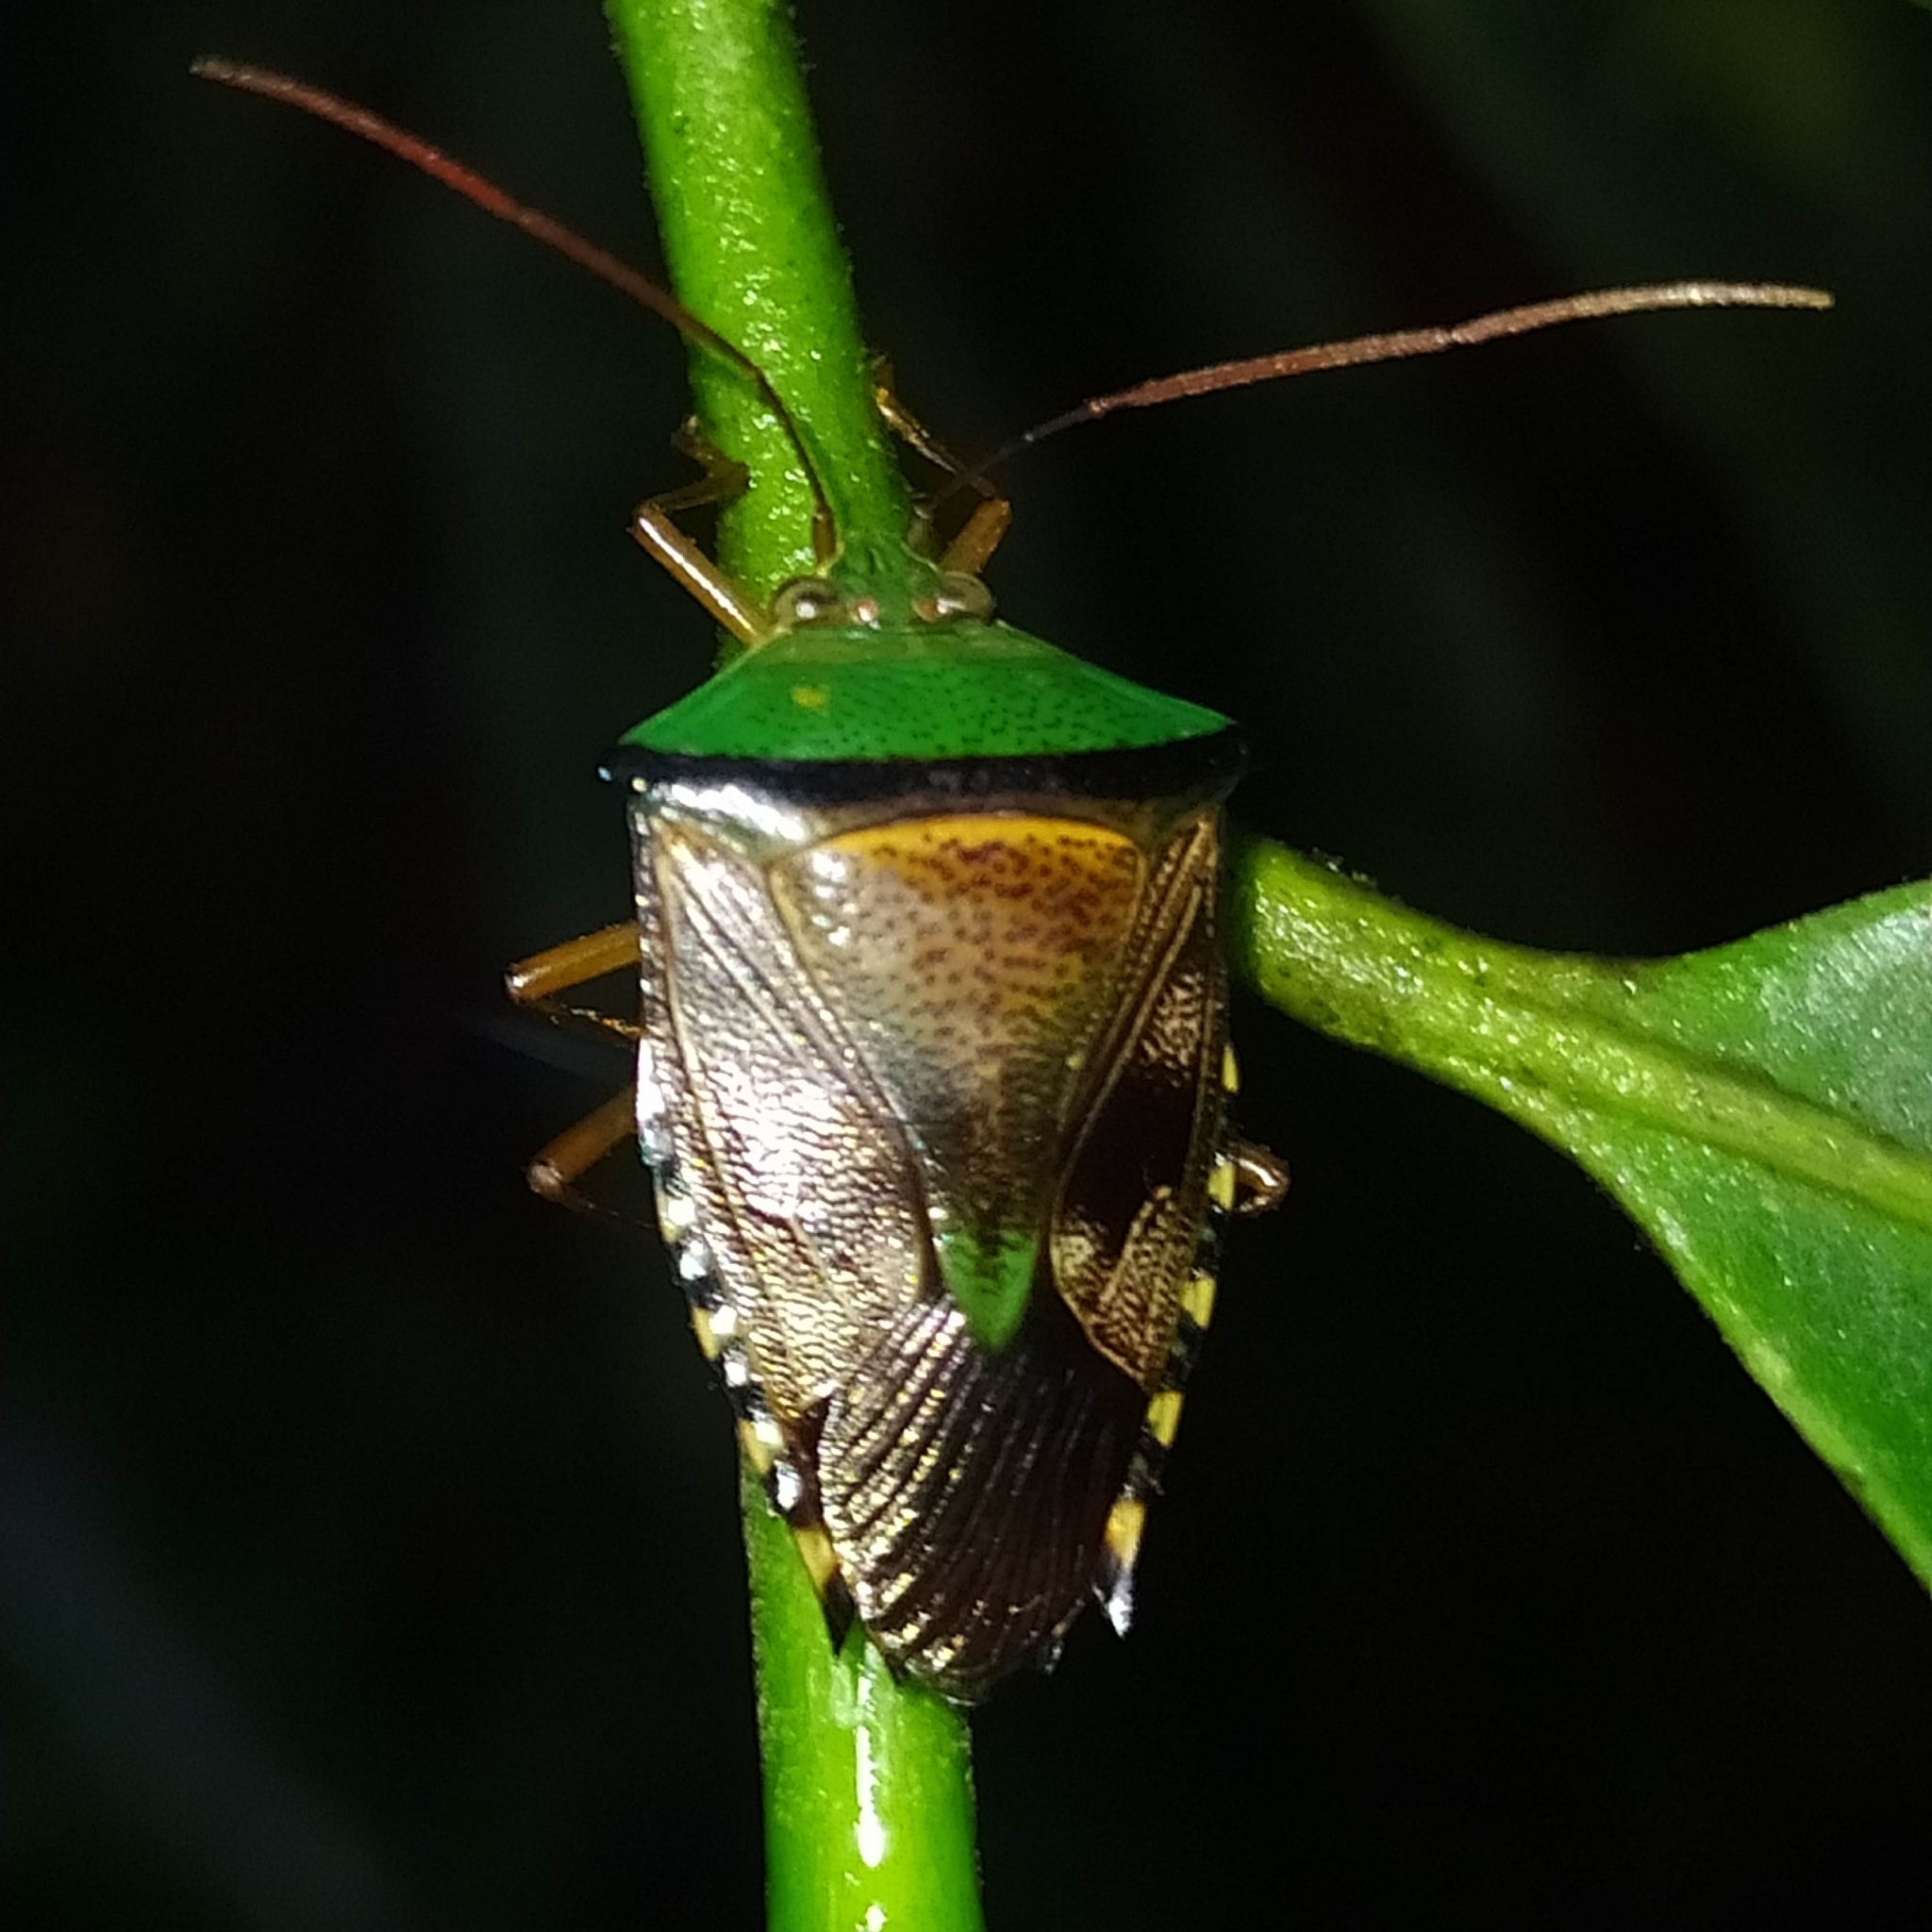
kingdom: Animalia
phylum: Arthropoda
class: Insecta
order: Hemiptera
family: Pentatomidae
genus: Hypoxys
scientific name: Hypoxys trabeculus
